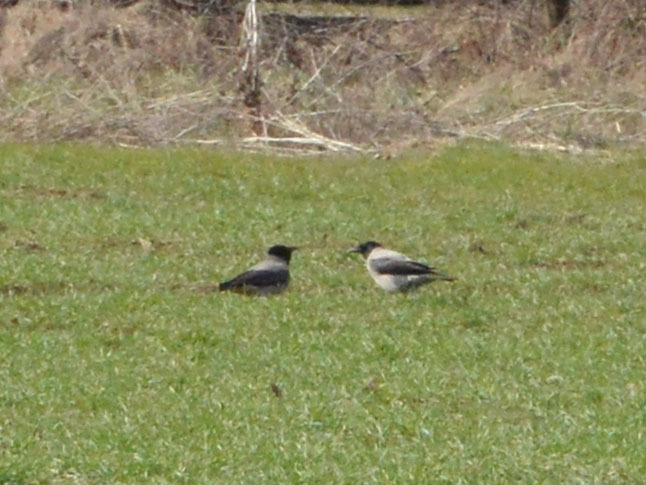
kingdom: Animalia
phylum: Chordata
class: Aves
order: Passeriformes
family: Corvidae
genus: Corvus
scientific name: Corvus cornix
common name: Hooded crow
